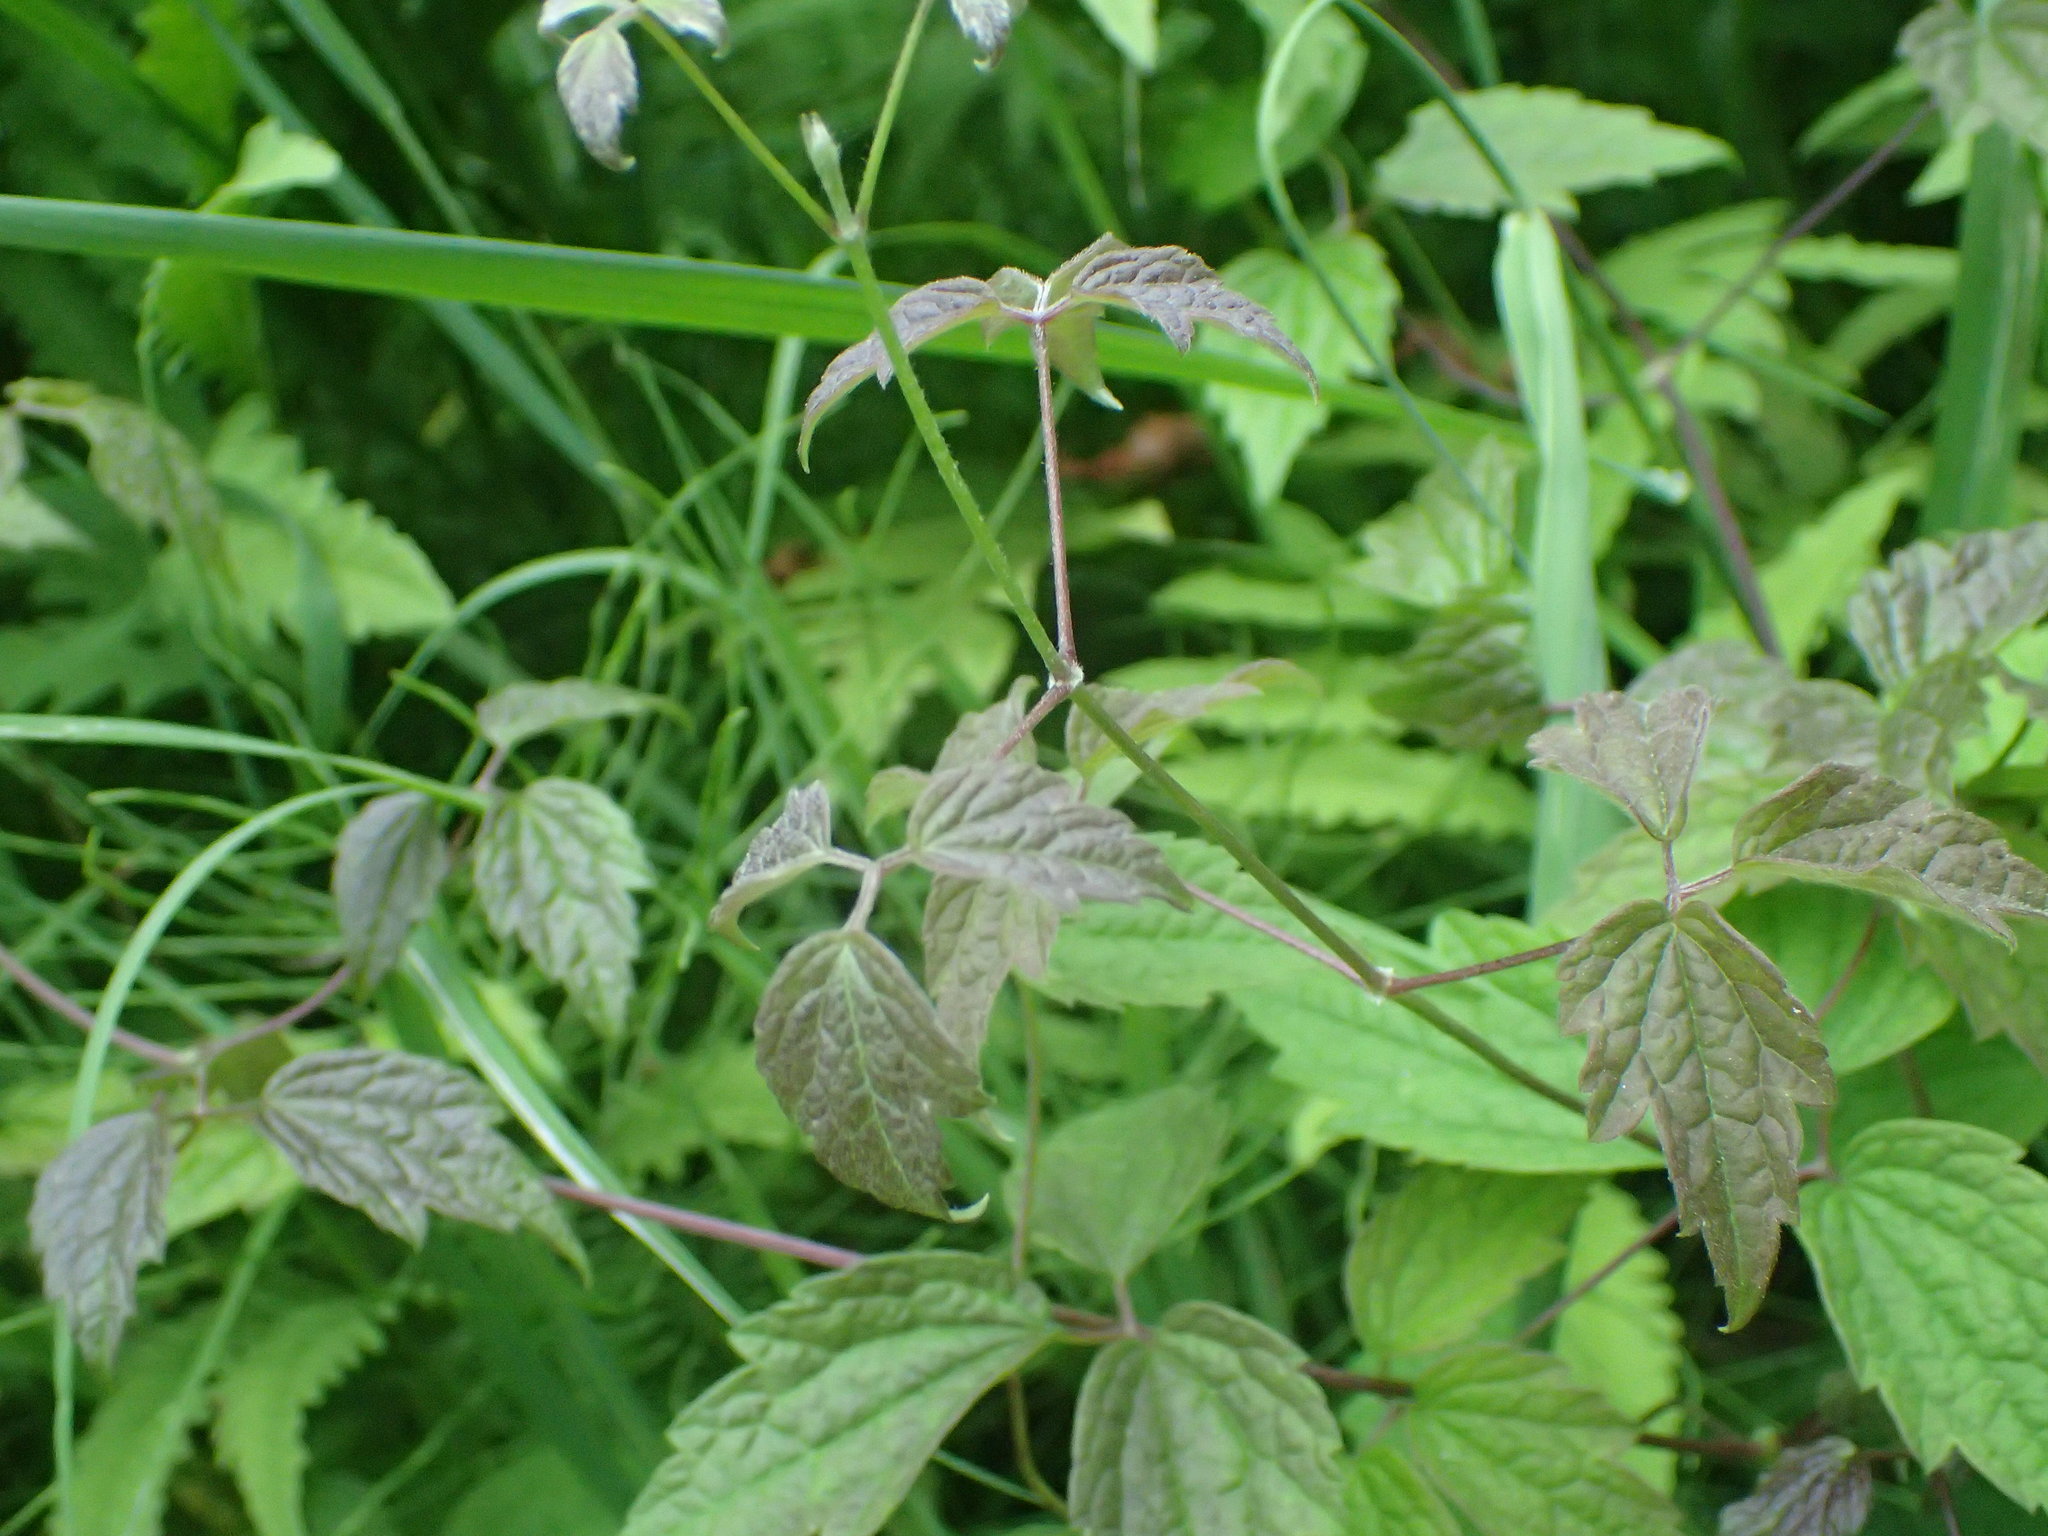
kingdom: Plantae
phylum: Tracheophyta
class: Magnoliopsida
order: Ranunculales
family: Ranunculaceae
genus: Clematis
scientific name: Clematis virginiana
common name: Virgin's-bower
